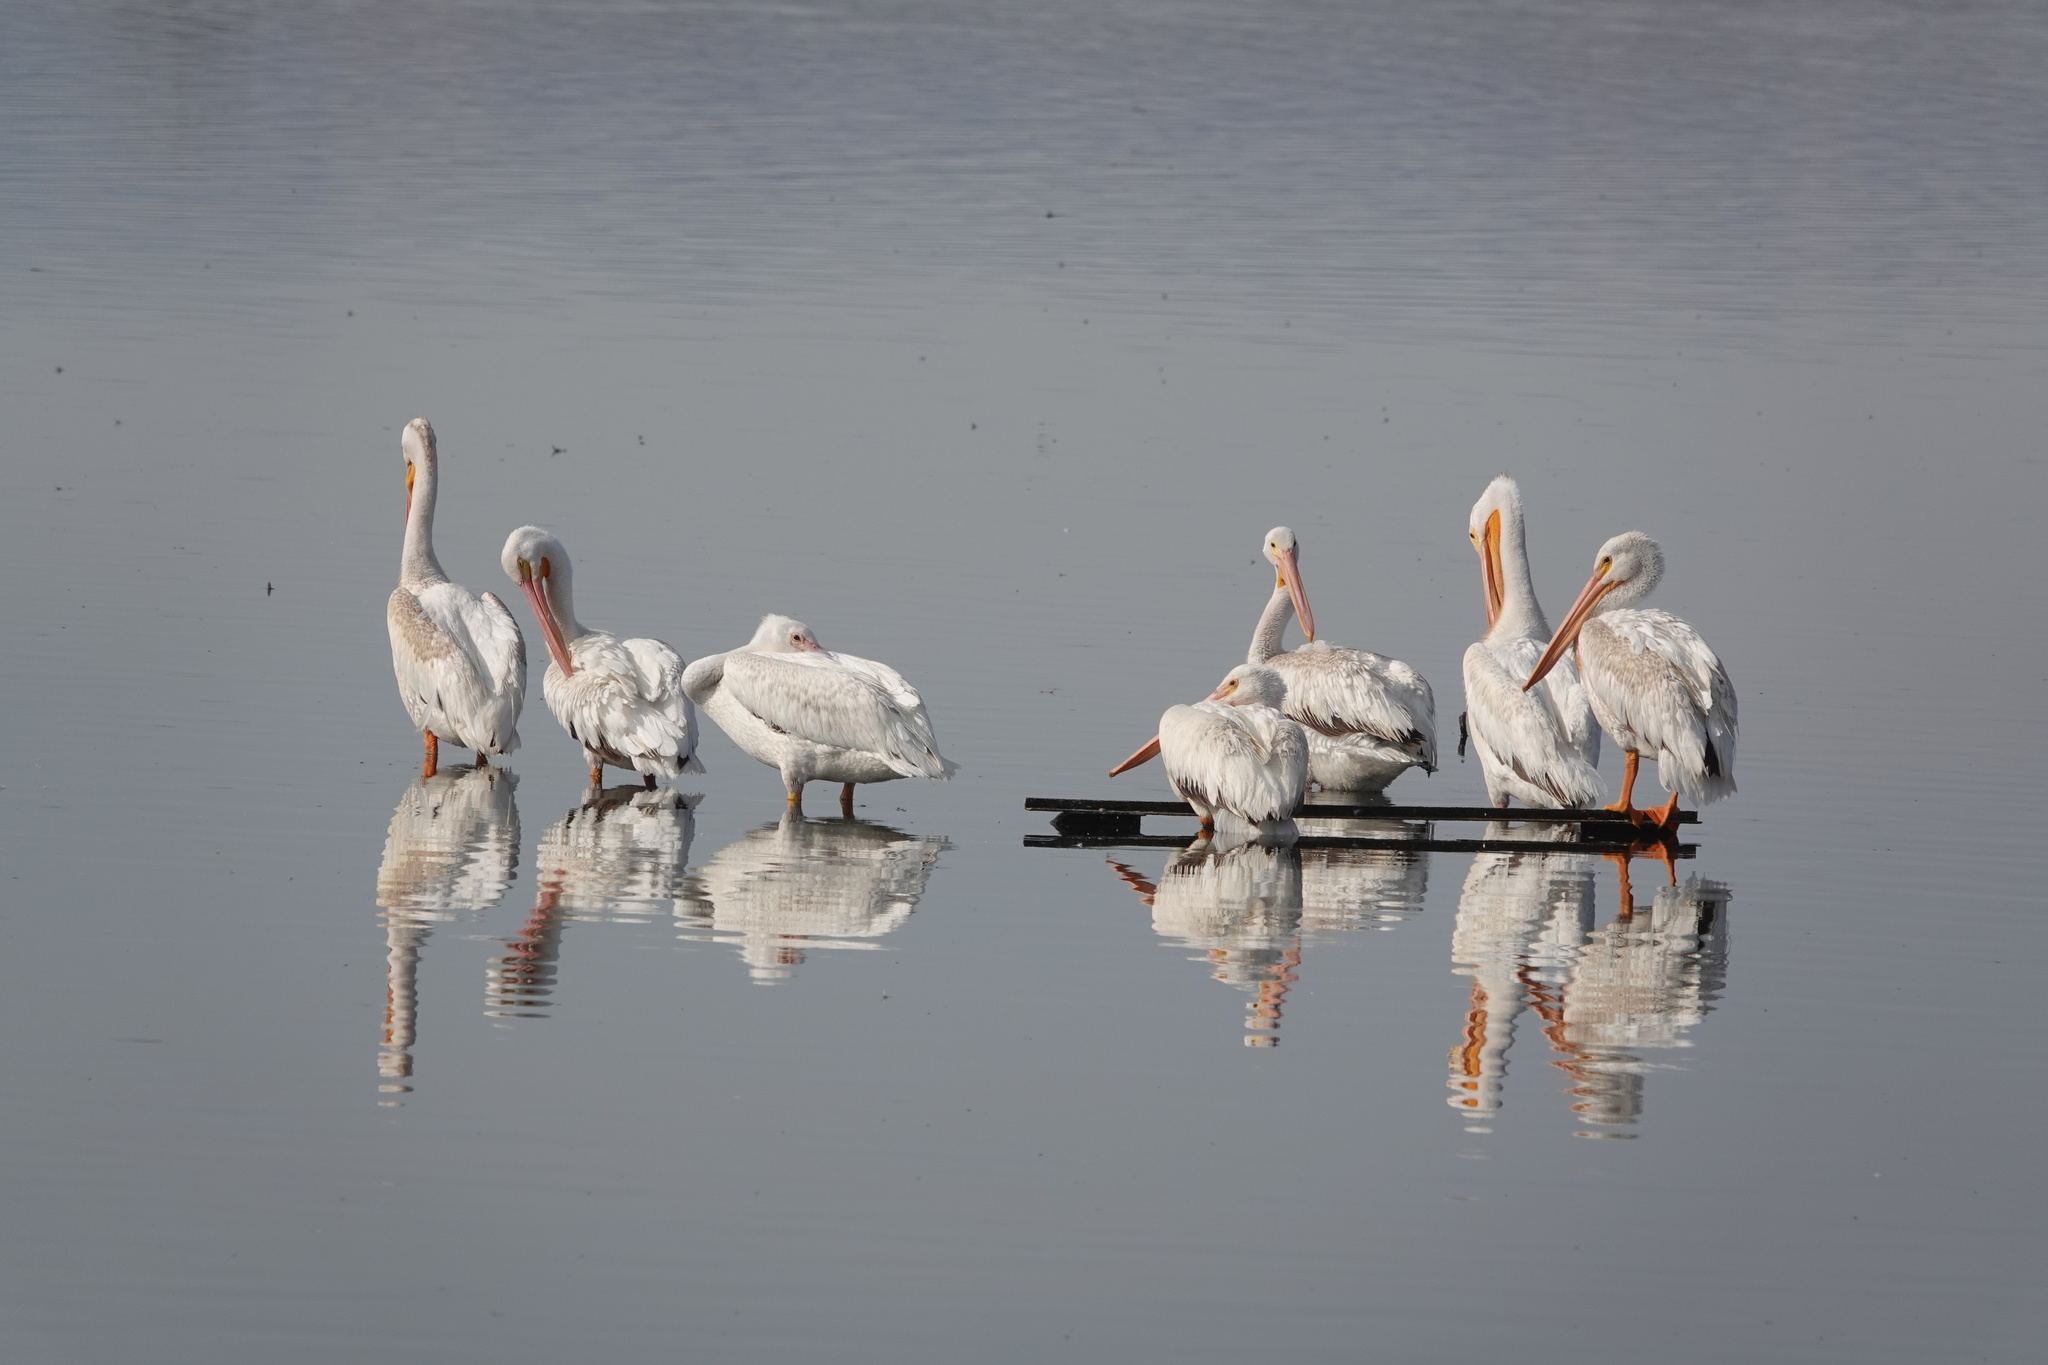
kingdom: Animalia
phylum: Chordata
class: Aves
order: Pelecaniformes
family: Pelecanidae
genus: Pelecanus
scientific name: Pelecanus erythrorhynchos
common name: American white pelican
